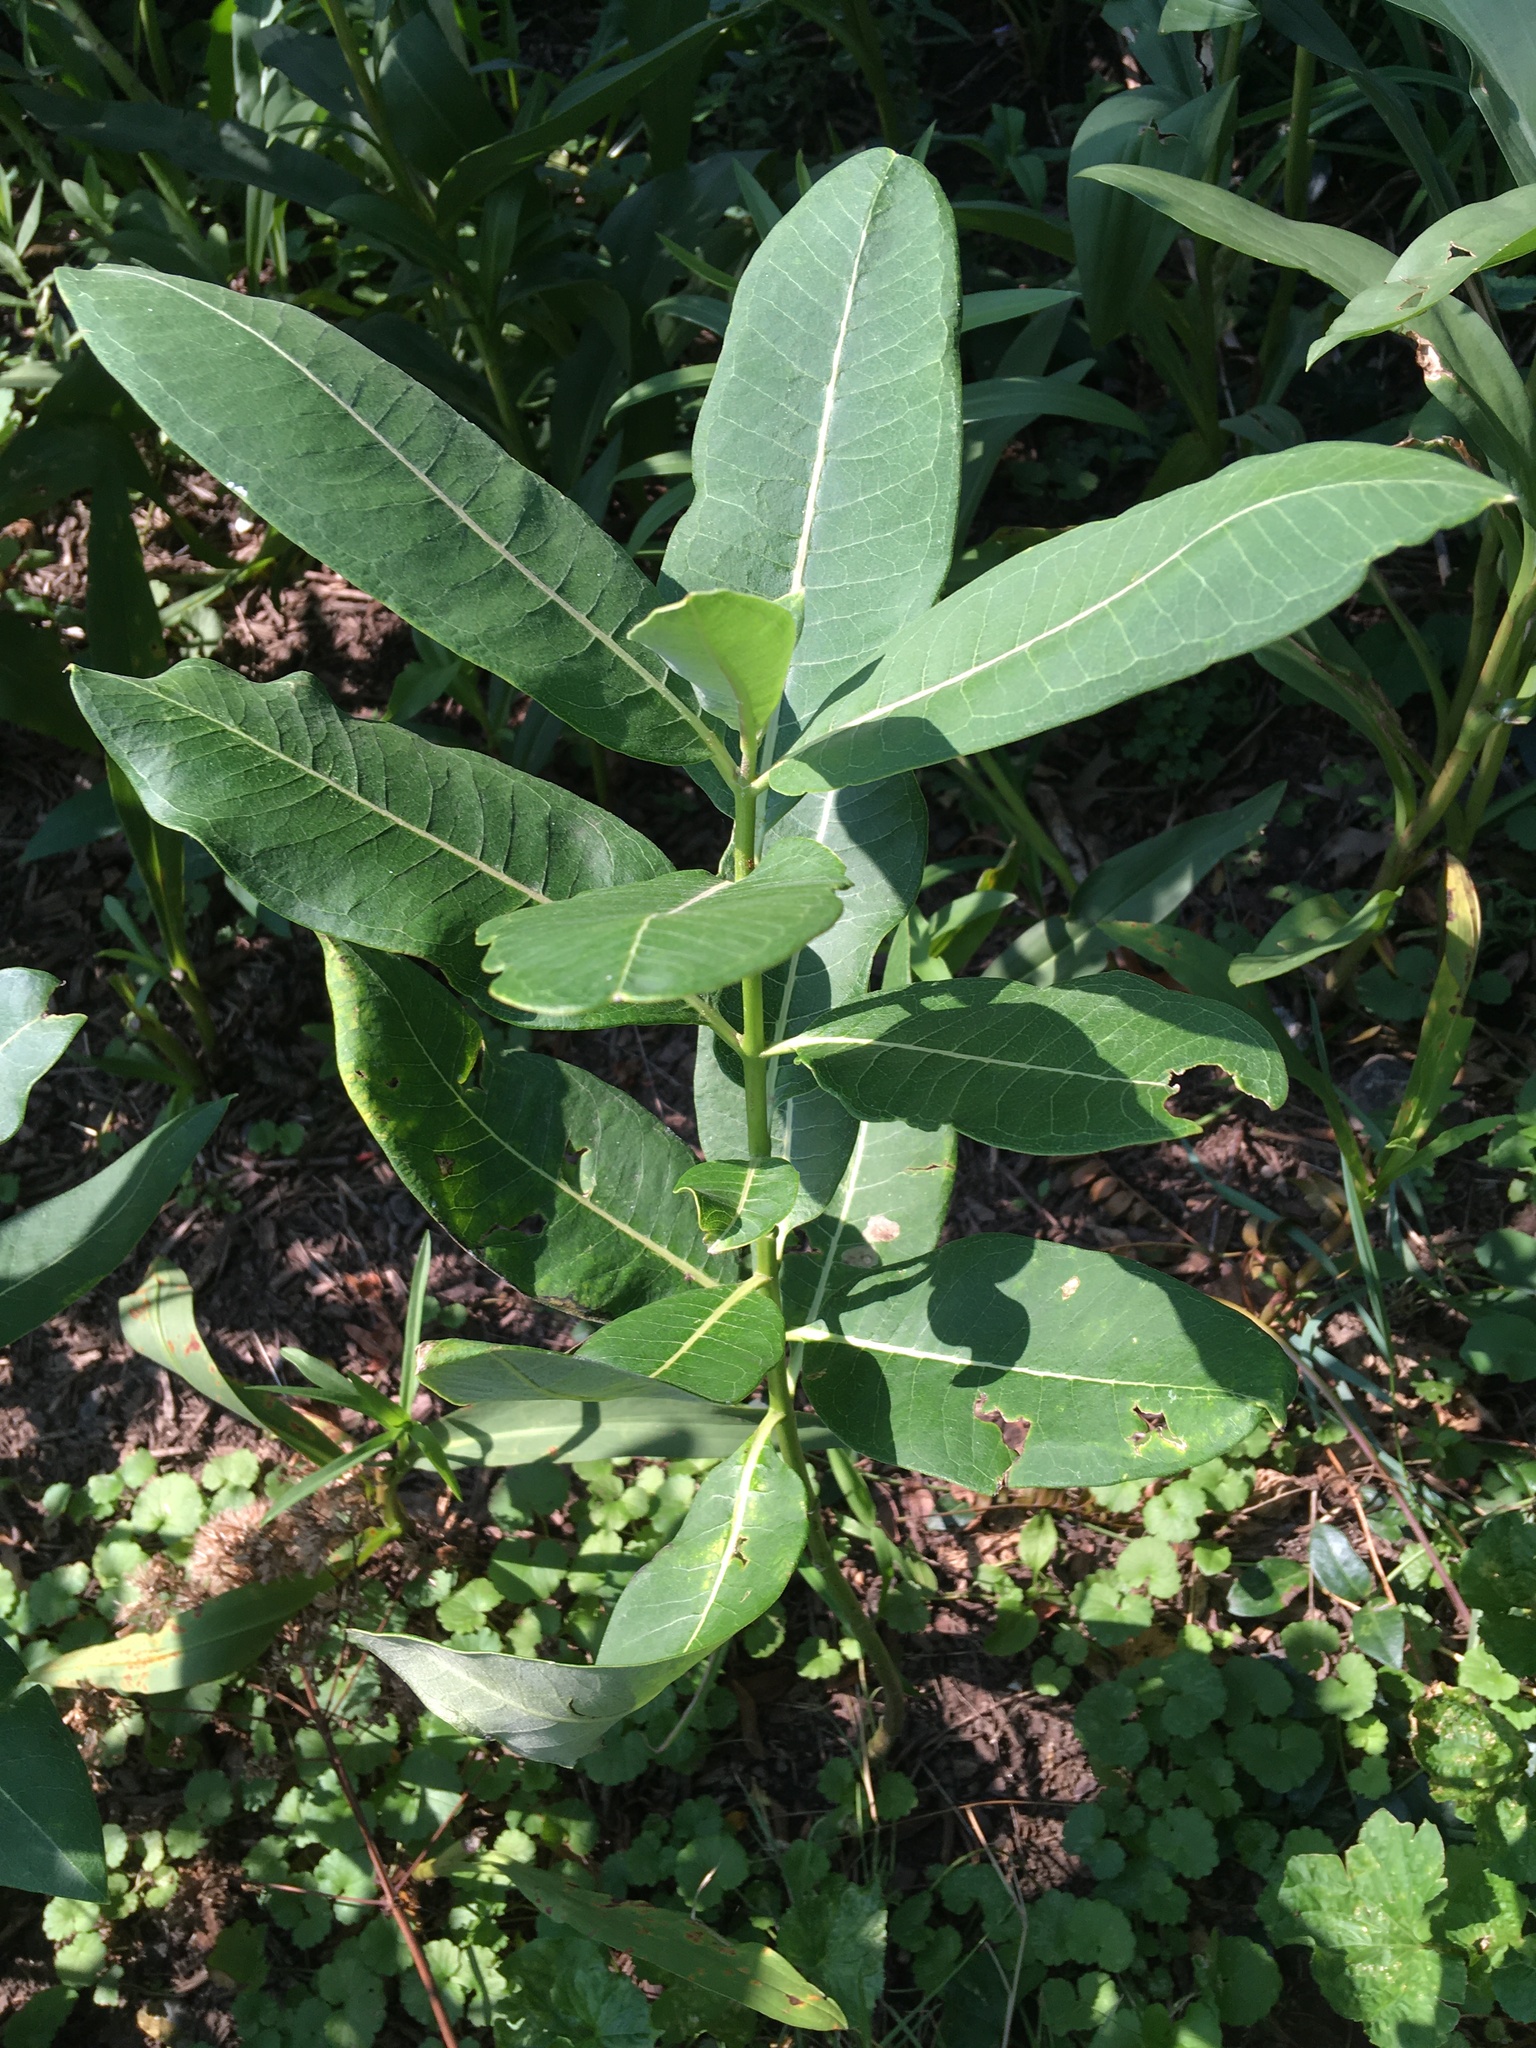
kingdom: Plantae
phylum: Tracheophyta
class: Magnoliopsida
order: Gentianales
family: Apocynaceae
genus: Asclepias
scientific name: Asclepias syriaca
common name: Common milkweed
